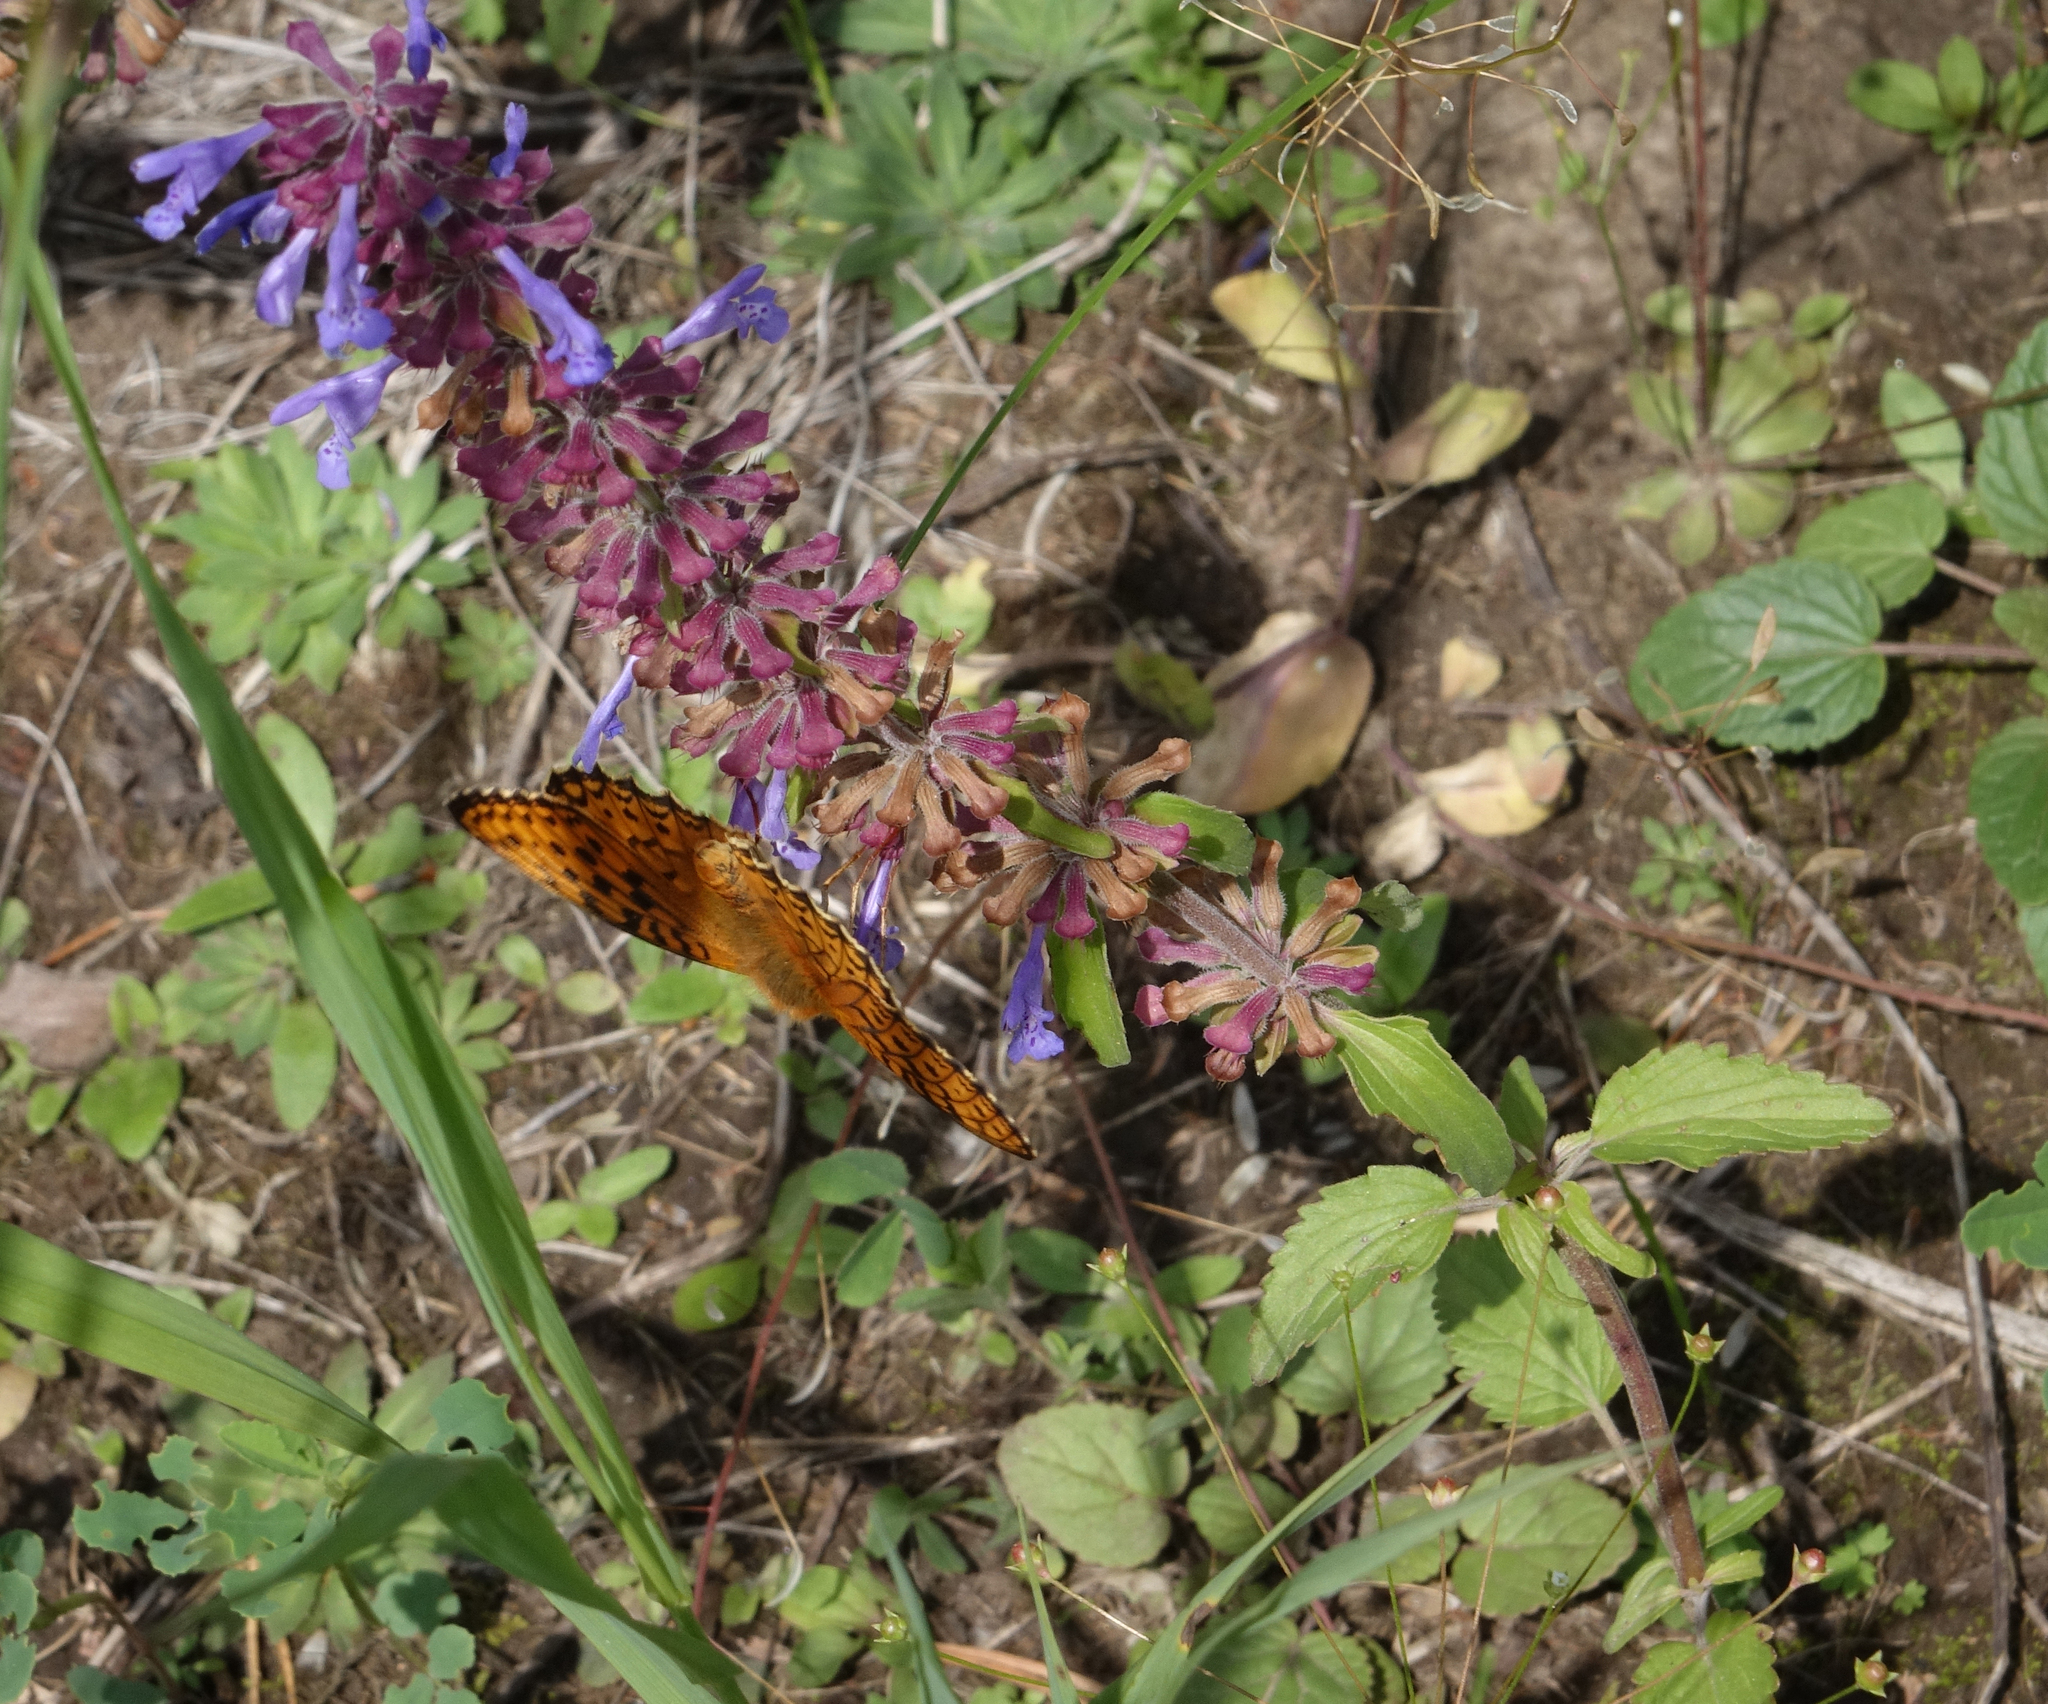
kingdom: Plantae
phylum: Tracheophyta
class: Magnoliopsida
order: Lamiales
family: Lamiaceae
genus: Dracocephalum
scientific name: Dracocephalum nutans
